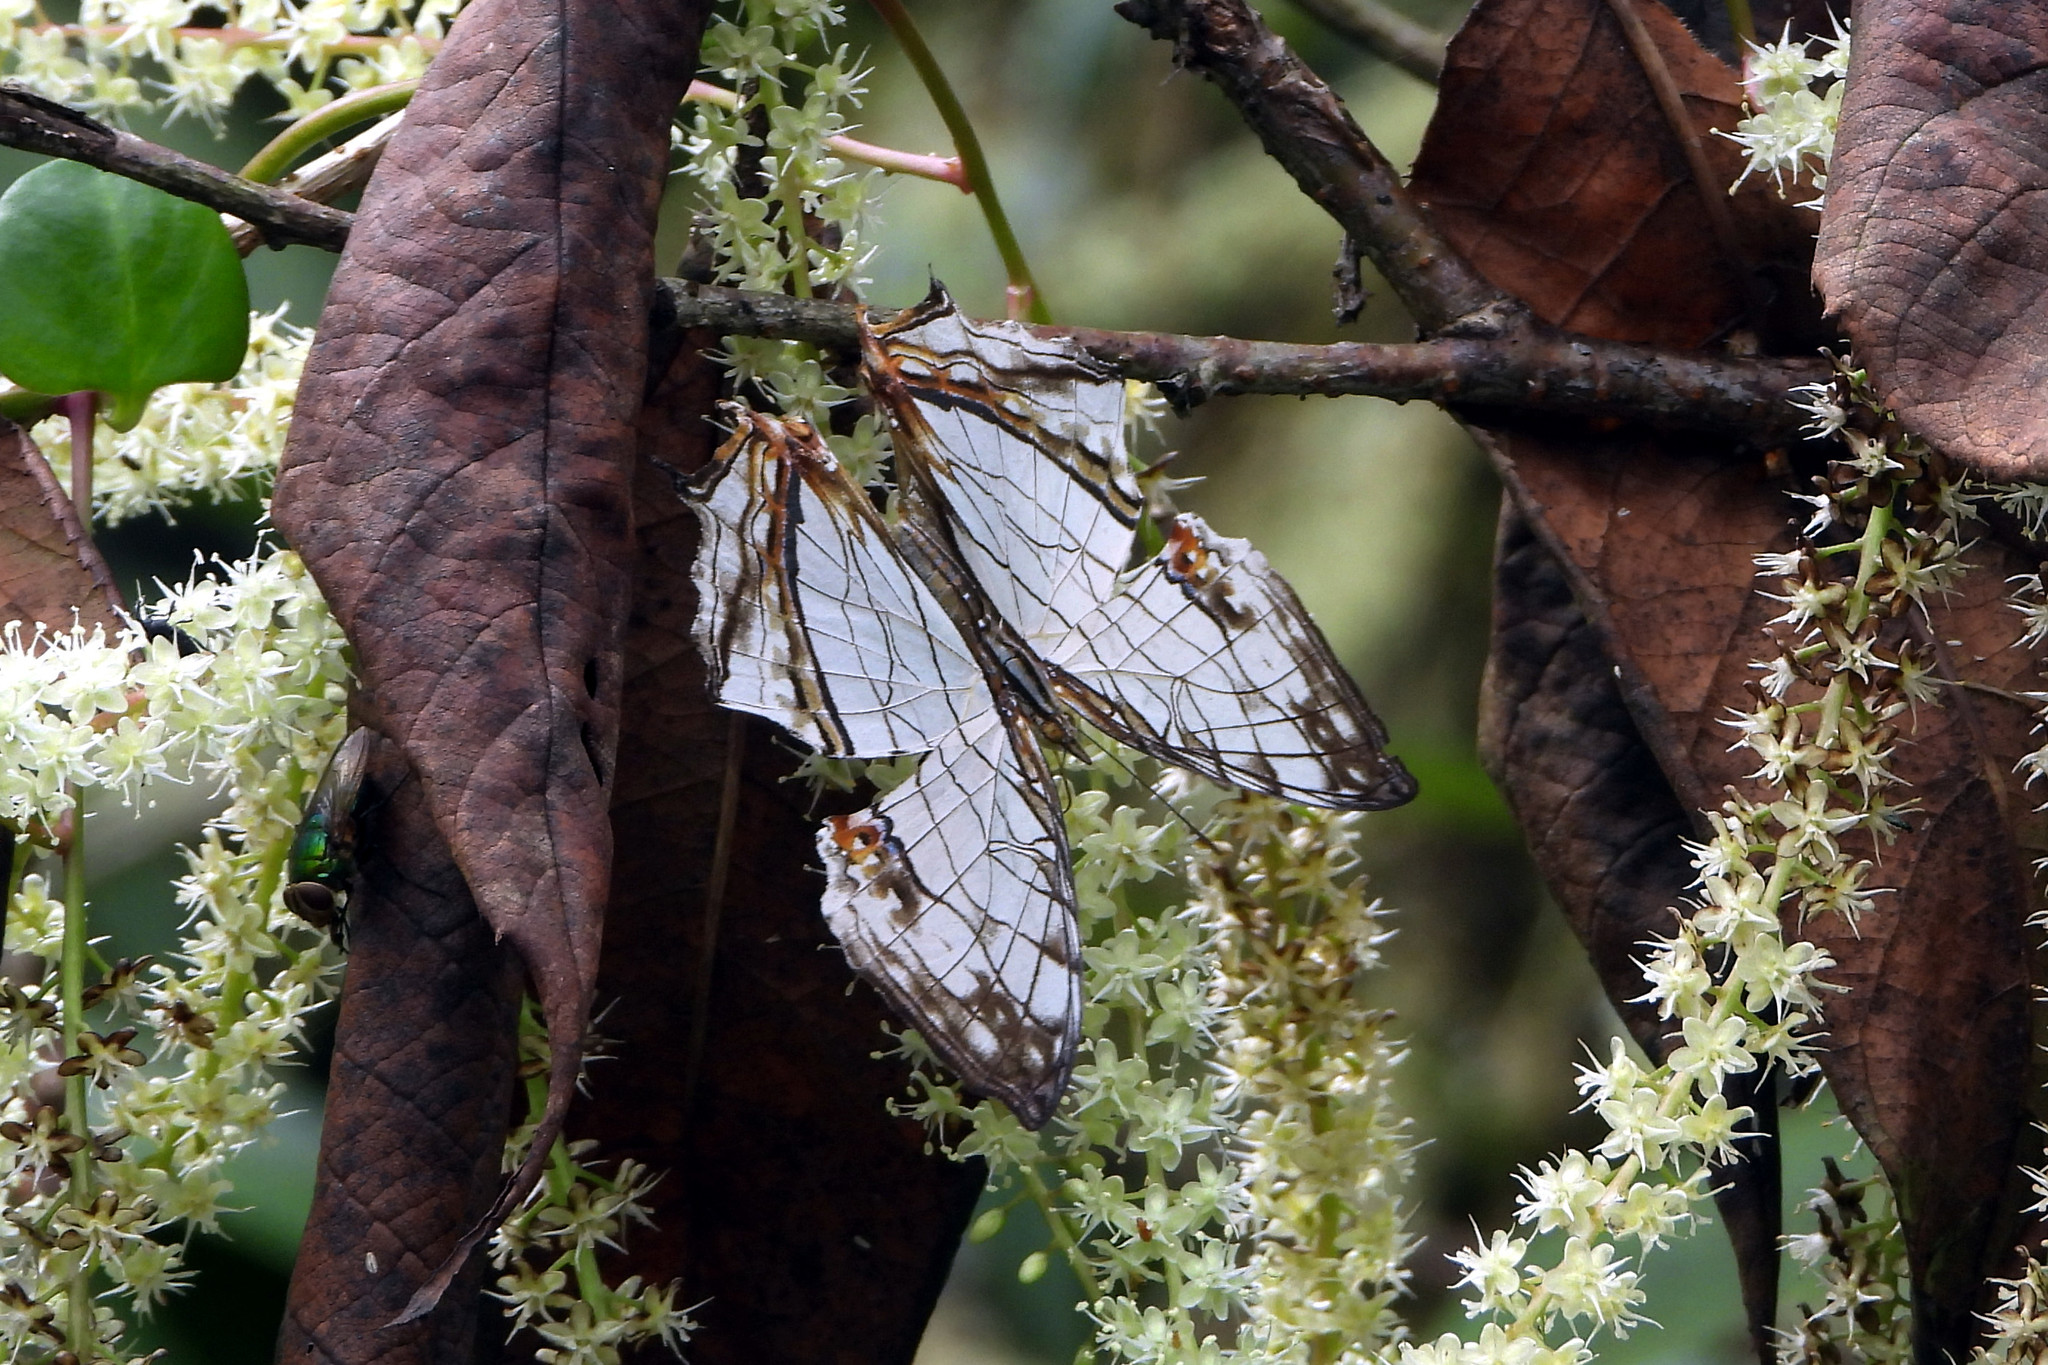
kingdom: Animalia
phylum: Arthropoda
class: Insecta
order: Lepidoptera
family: Nymphalidae
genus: Cyrestis
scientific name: Cyrestis thyodamas
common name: Common mapwing
